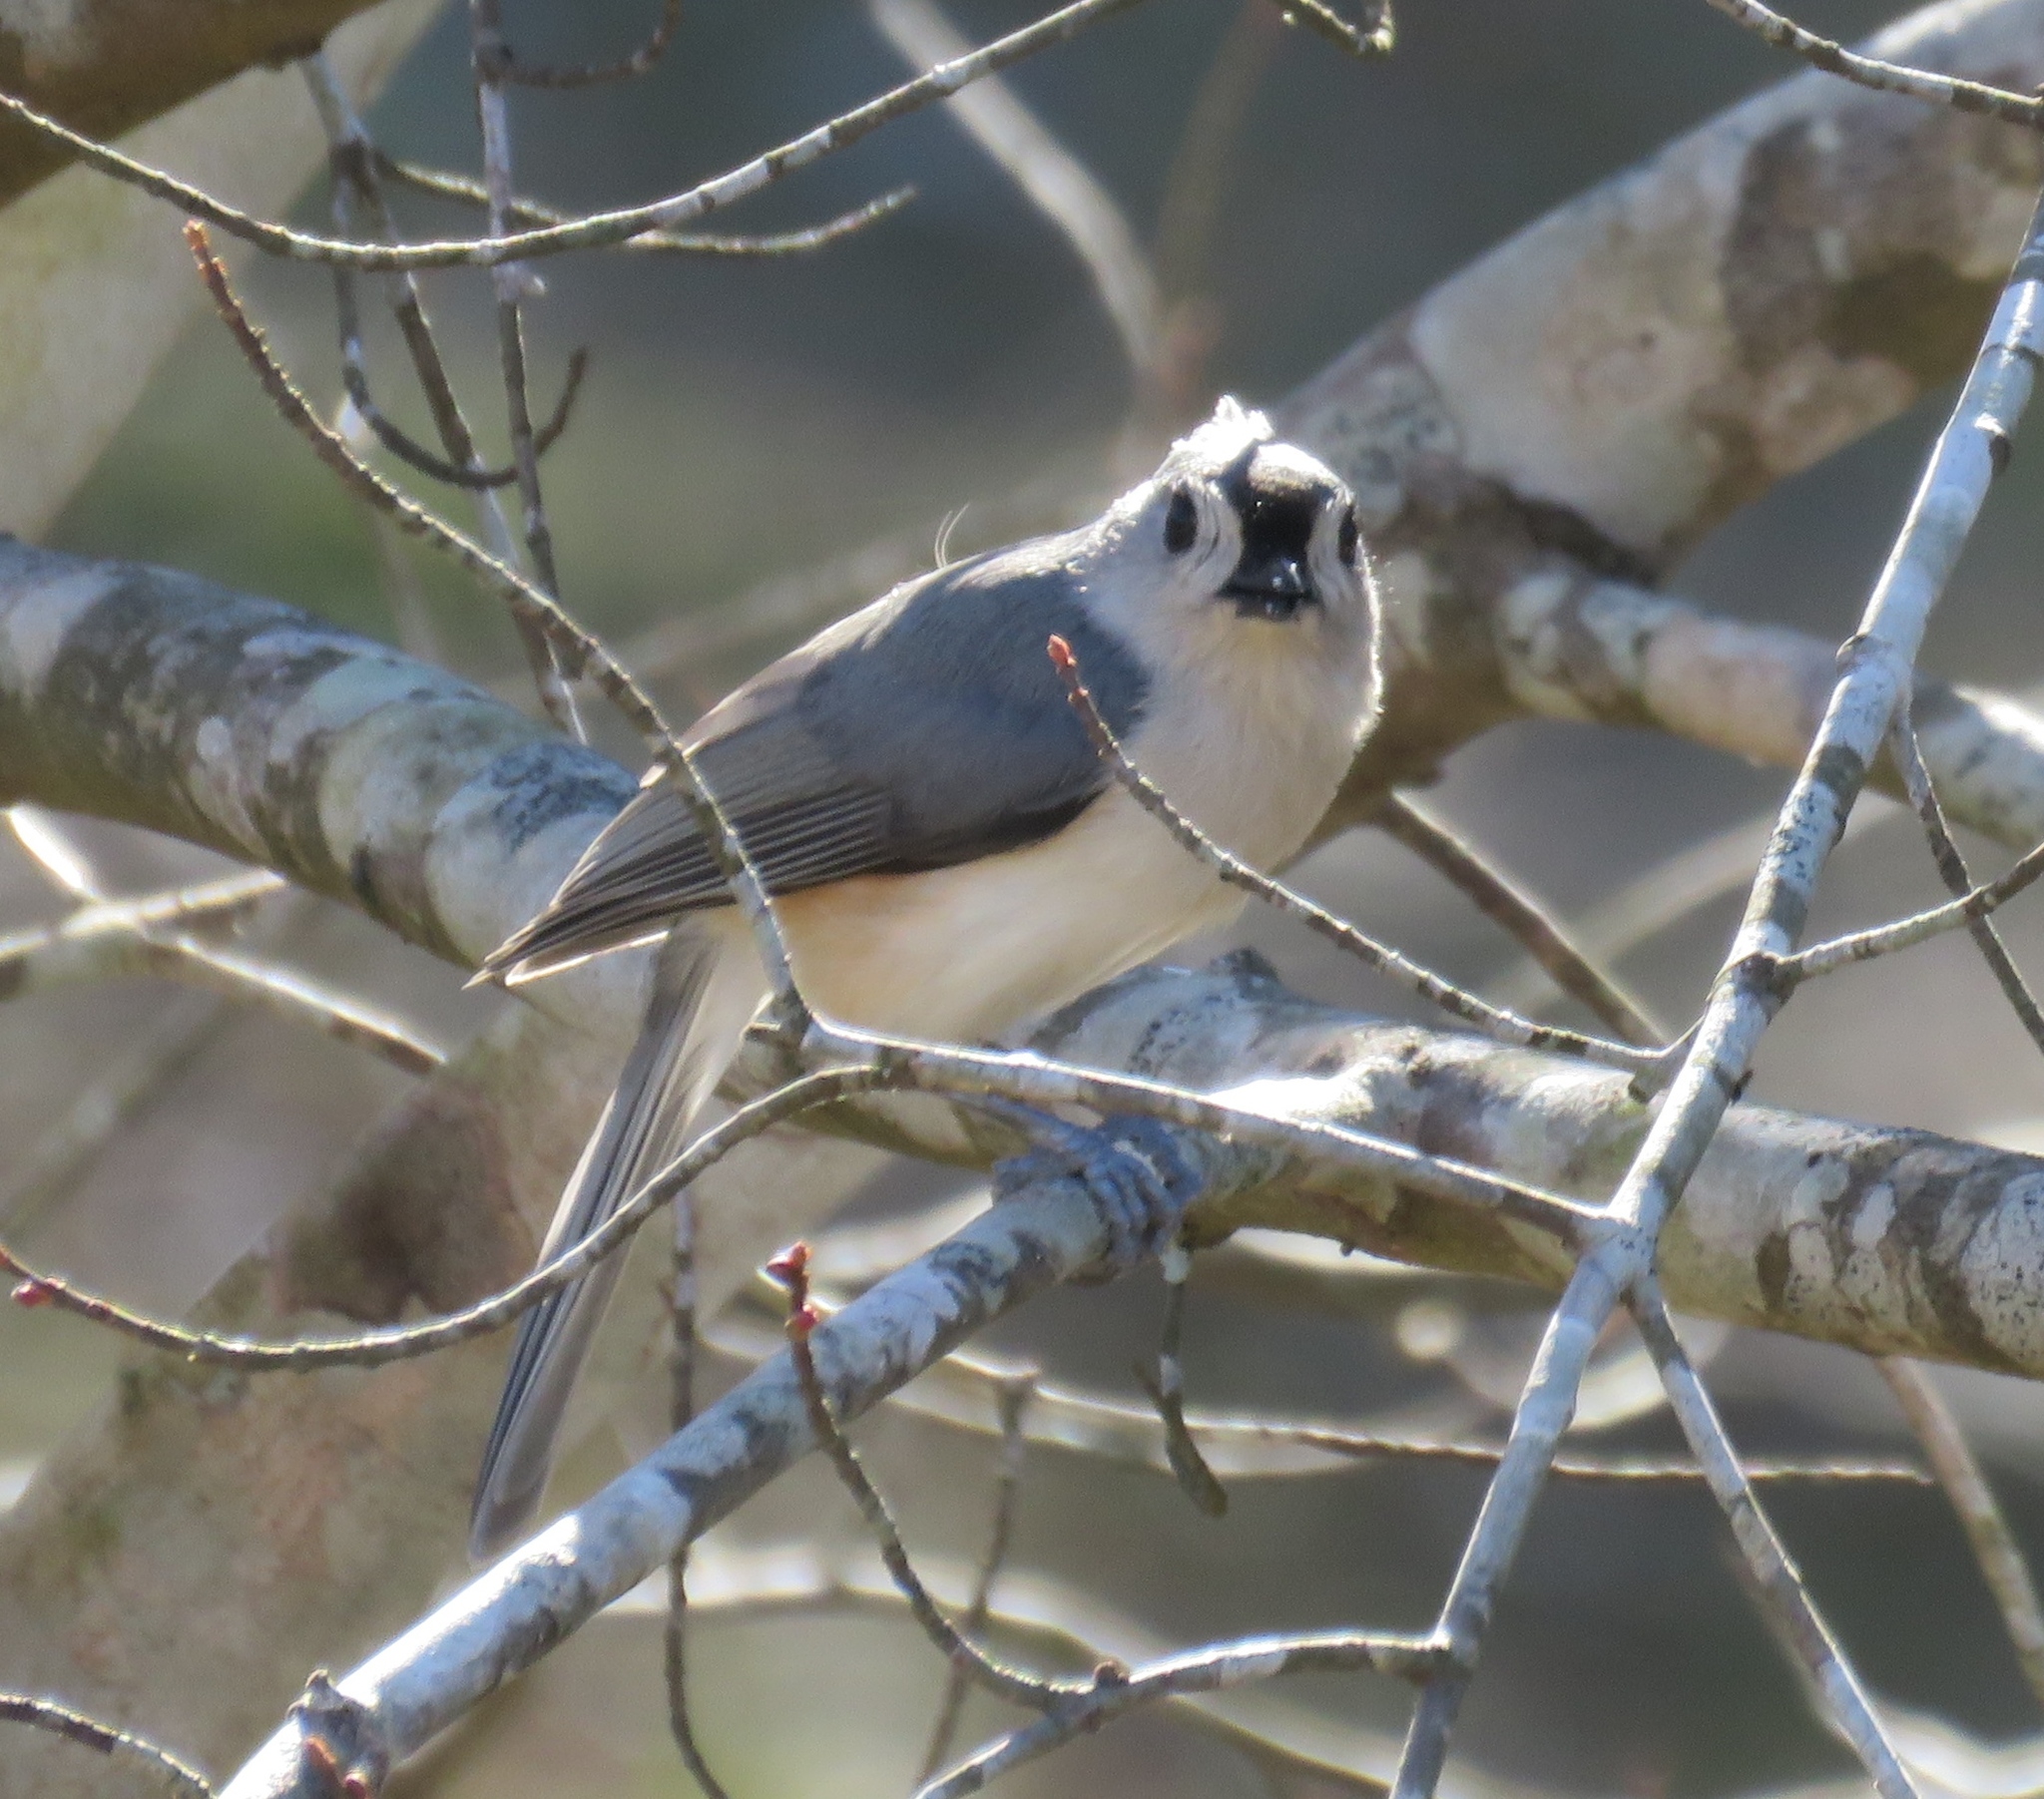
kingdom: Animalia
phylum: Chordata
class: Aves
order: Passeriformes
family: Paridae
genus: Baeolophus
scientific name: Baeolophus bicolor
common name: Tufted titmouse
